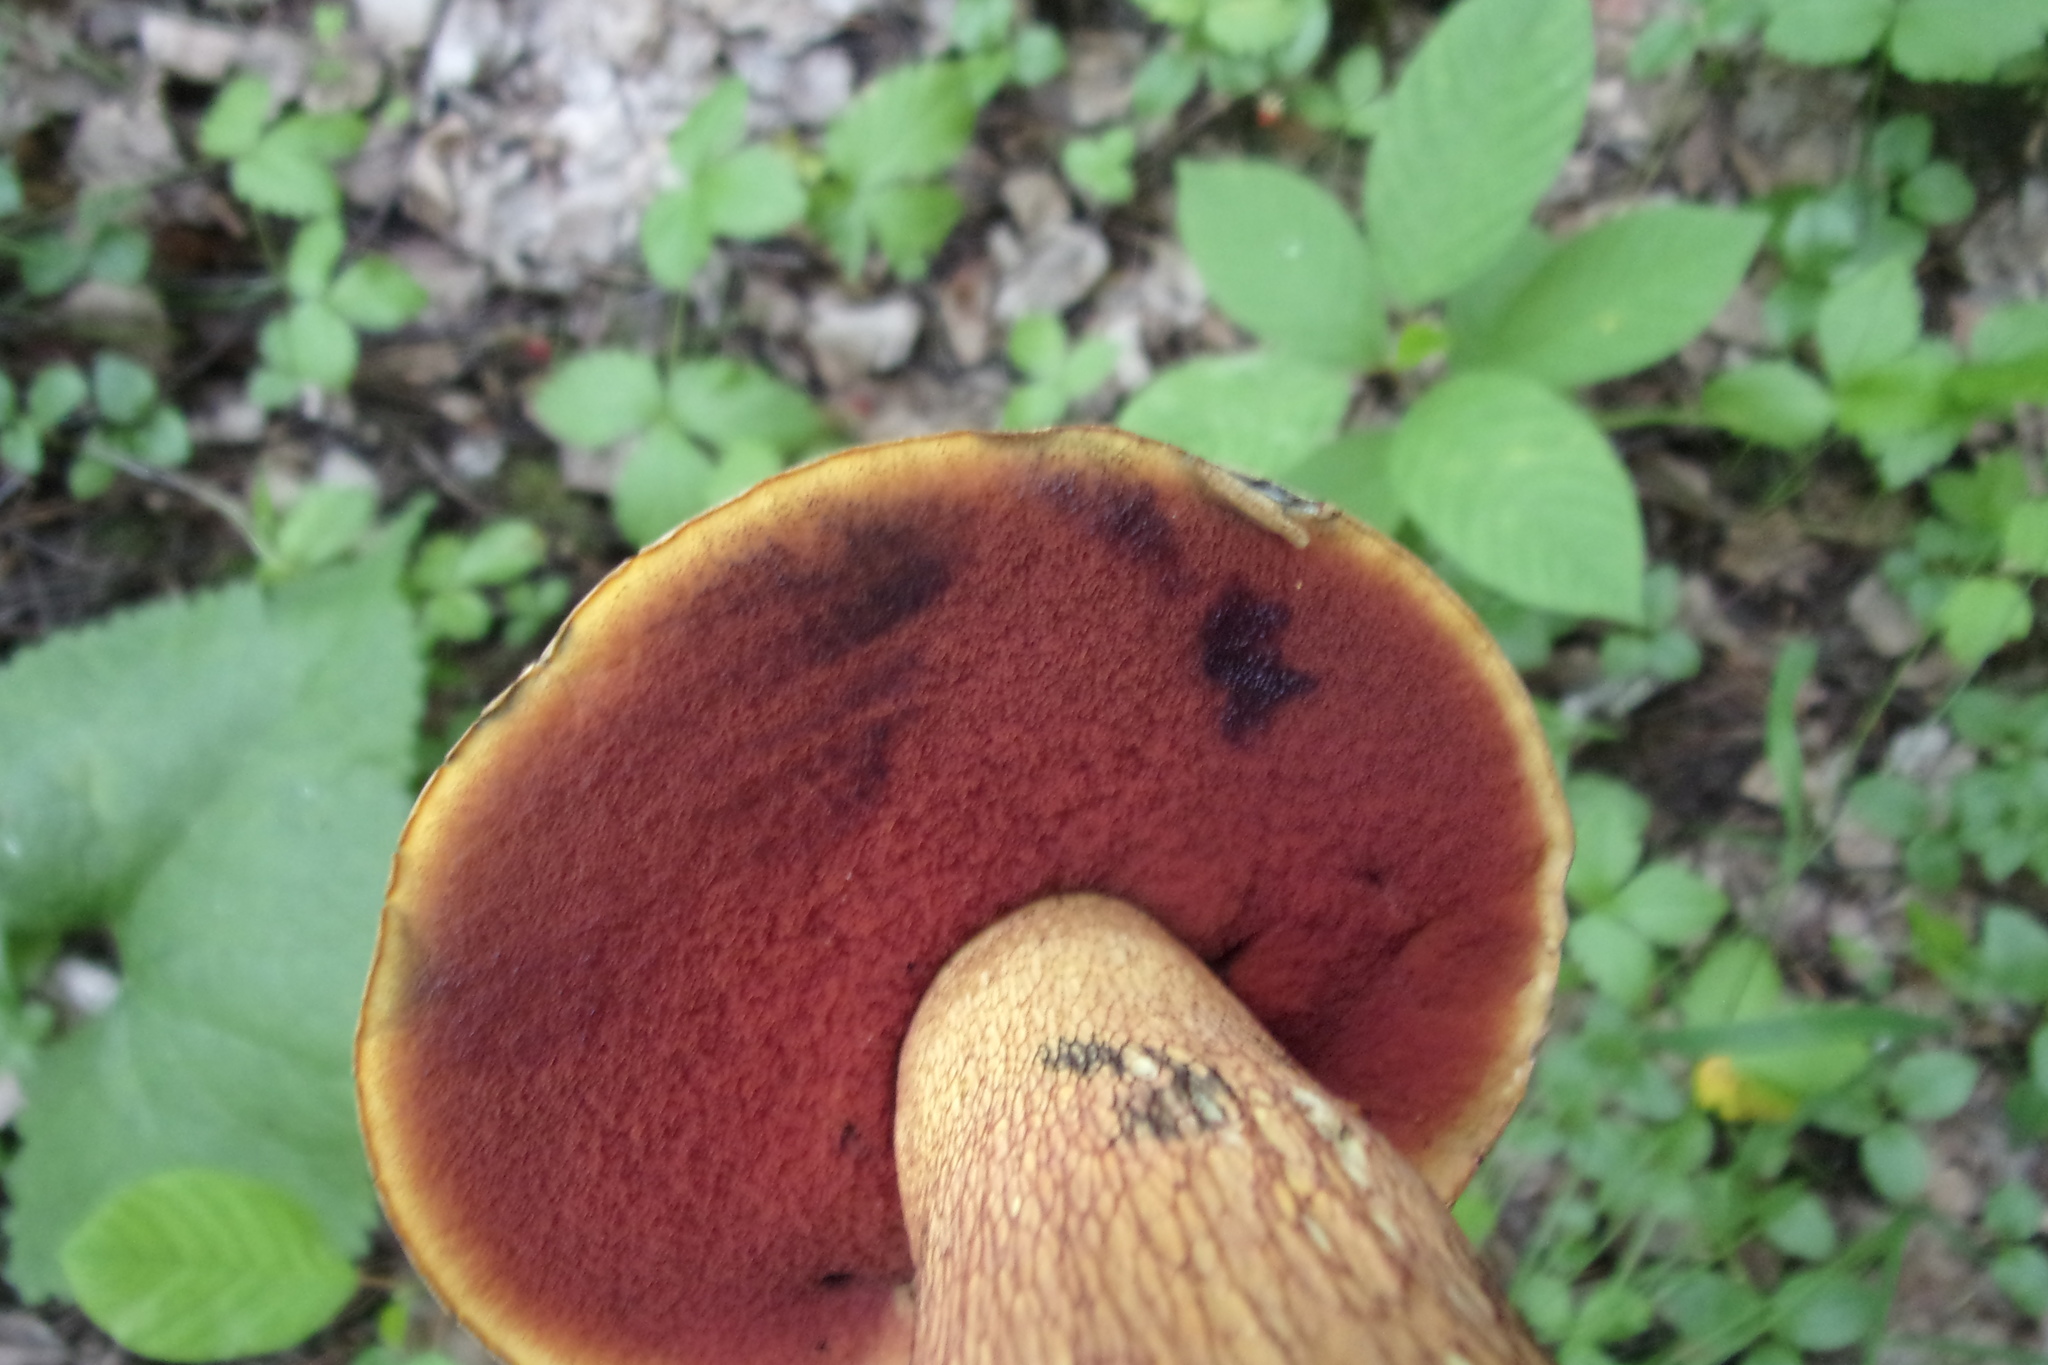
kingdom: Fungi
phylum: Basidiomycota
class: Agaricomycetes
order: Boletales
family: Boletaceae
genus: Suillellus
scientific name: Suillellus luridus
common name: Lurid bolete
